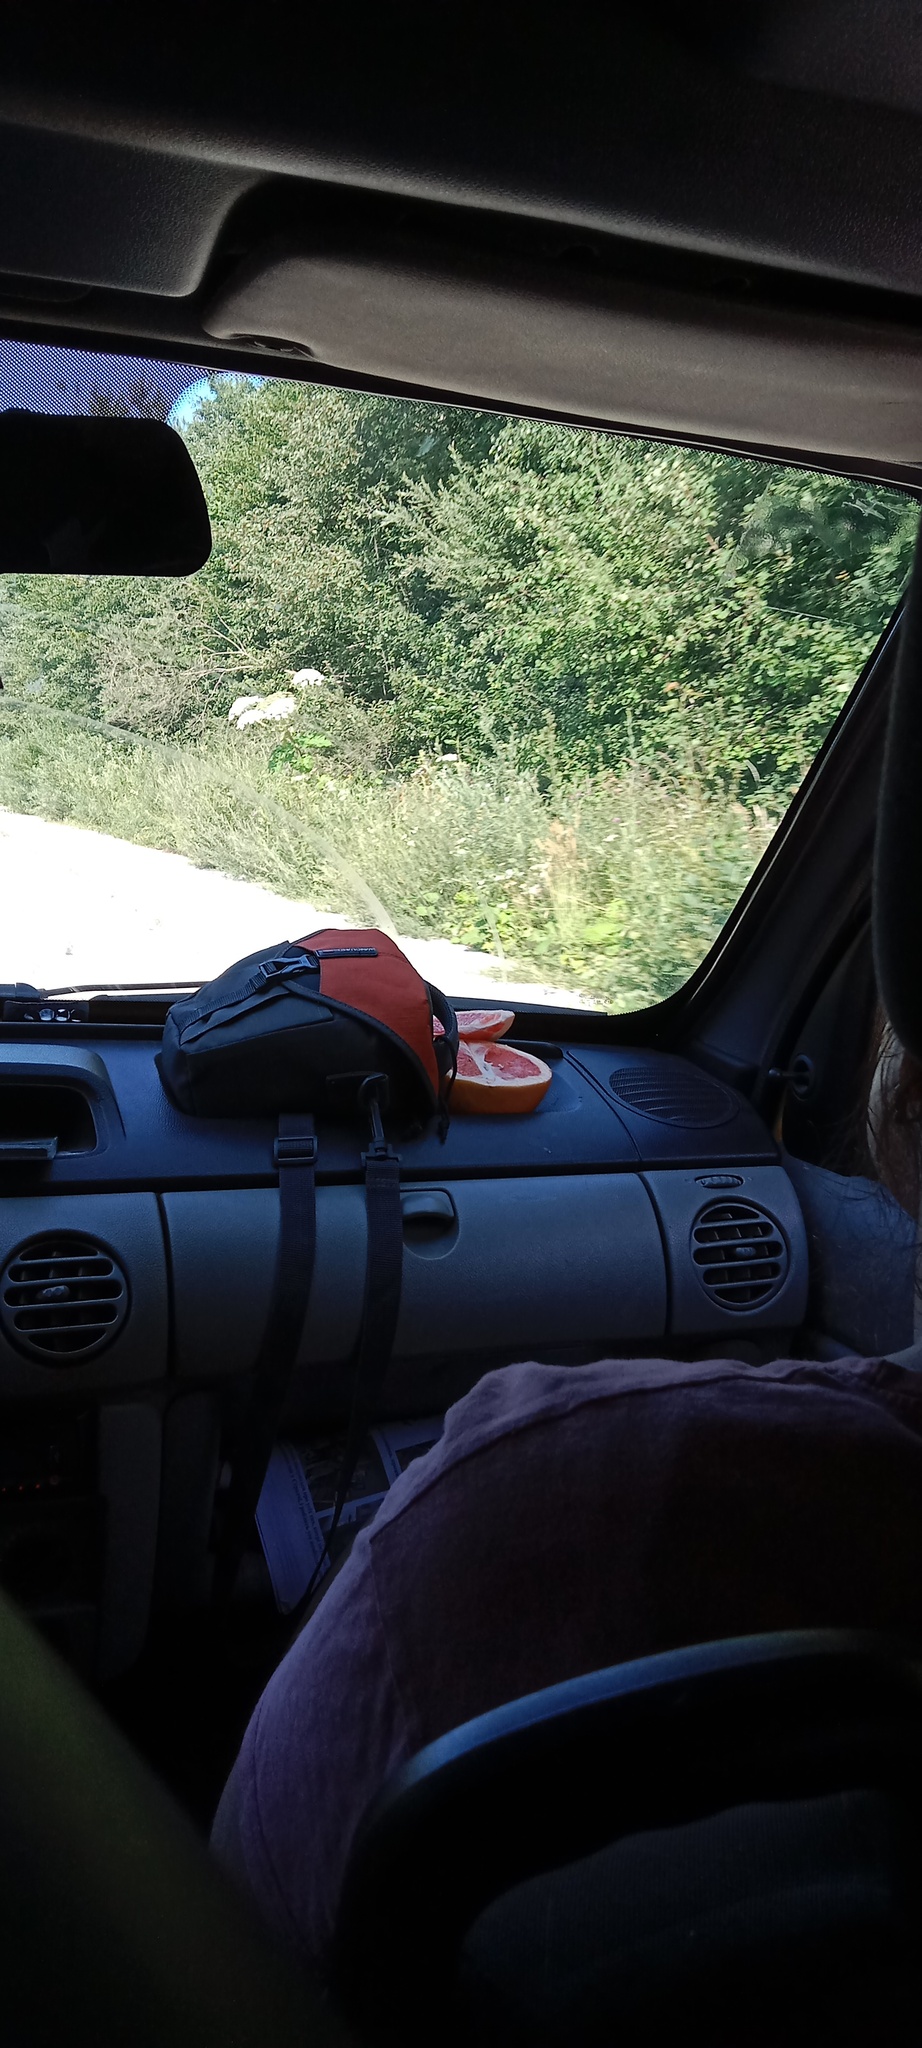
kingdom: Plantae
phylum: Tracheophyta
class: Magnoliopsida
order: Apiales
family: Apiaceae
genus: Heracleum
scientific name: Heracleum sosnowskyi
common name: Sosnowsky's hogweed
